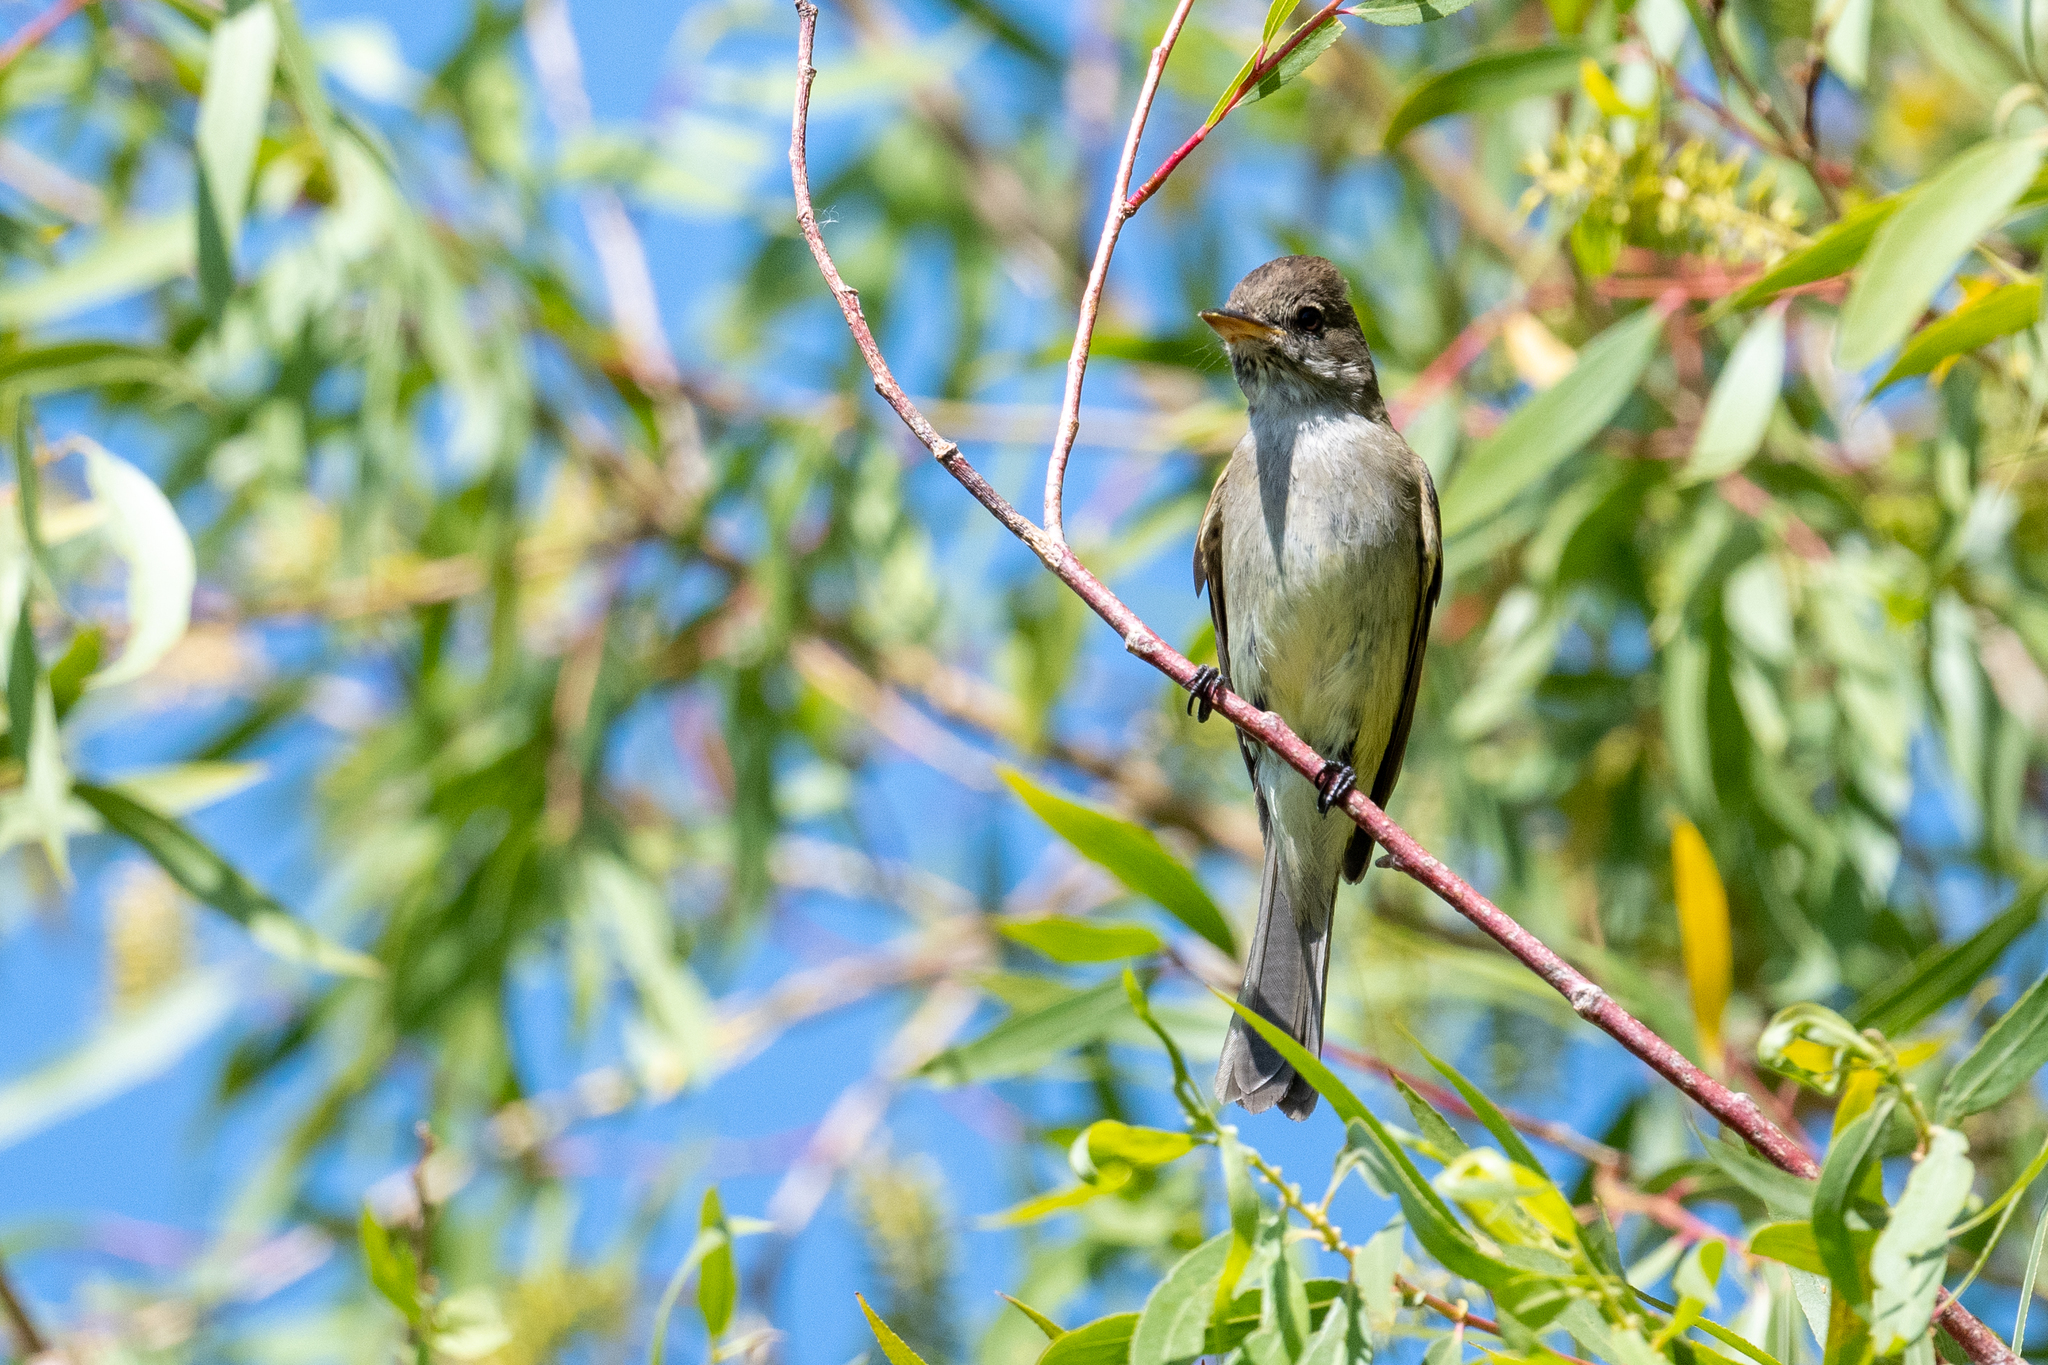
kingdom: Animalia
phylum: Chordata
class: Aves
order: Passeriformes
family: Tyrannidae
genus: Empidonax
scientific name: Empidonax traillii
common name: Willow flycatcher
